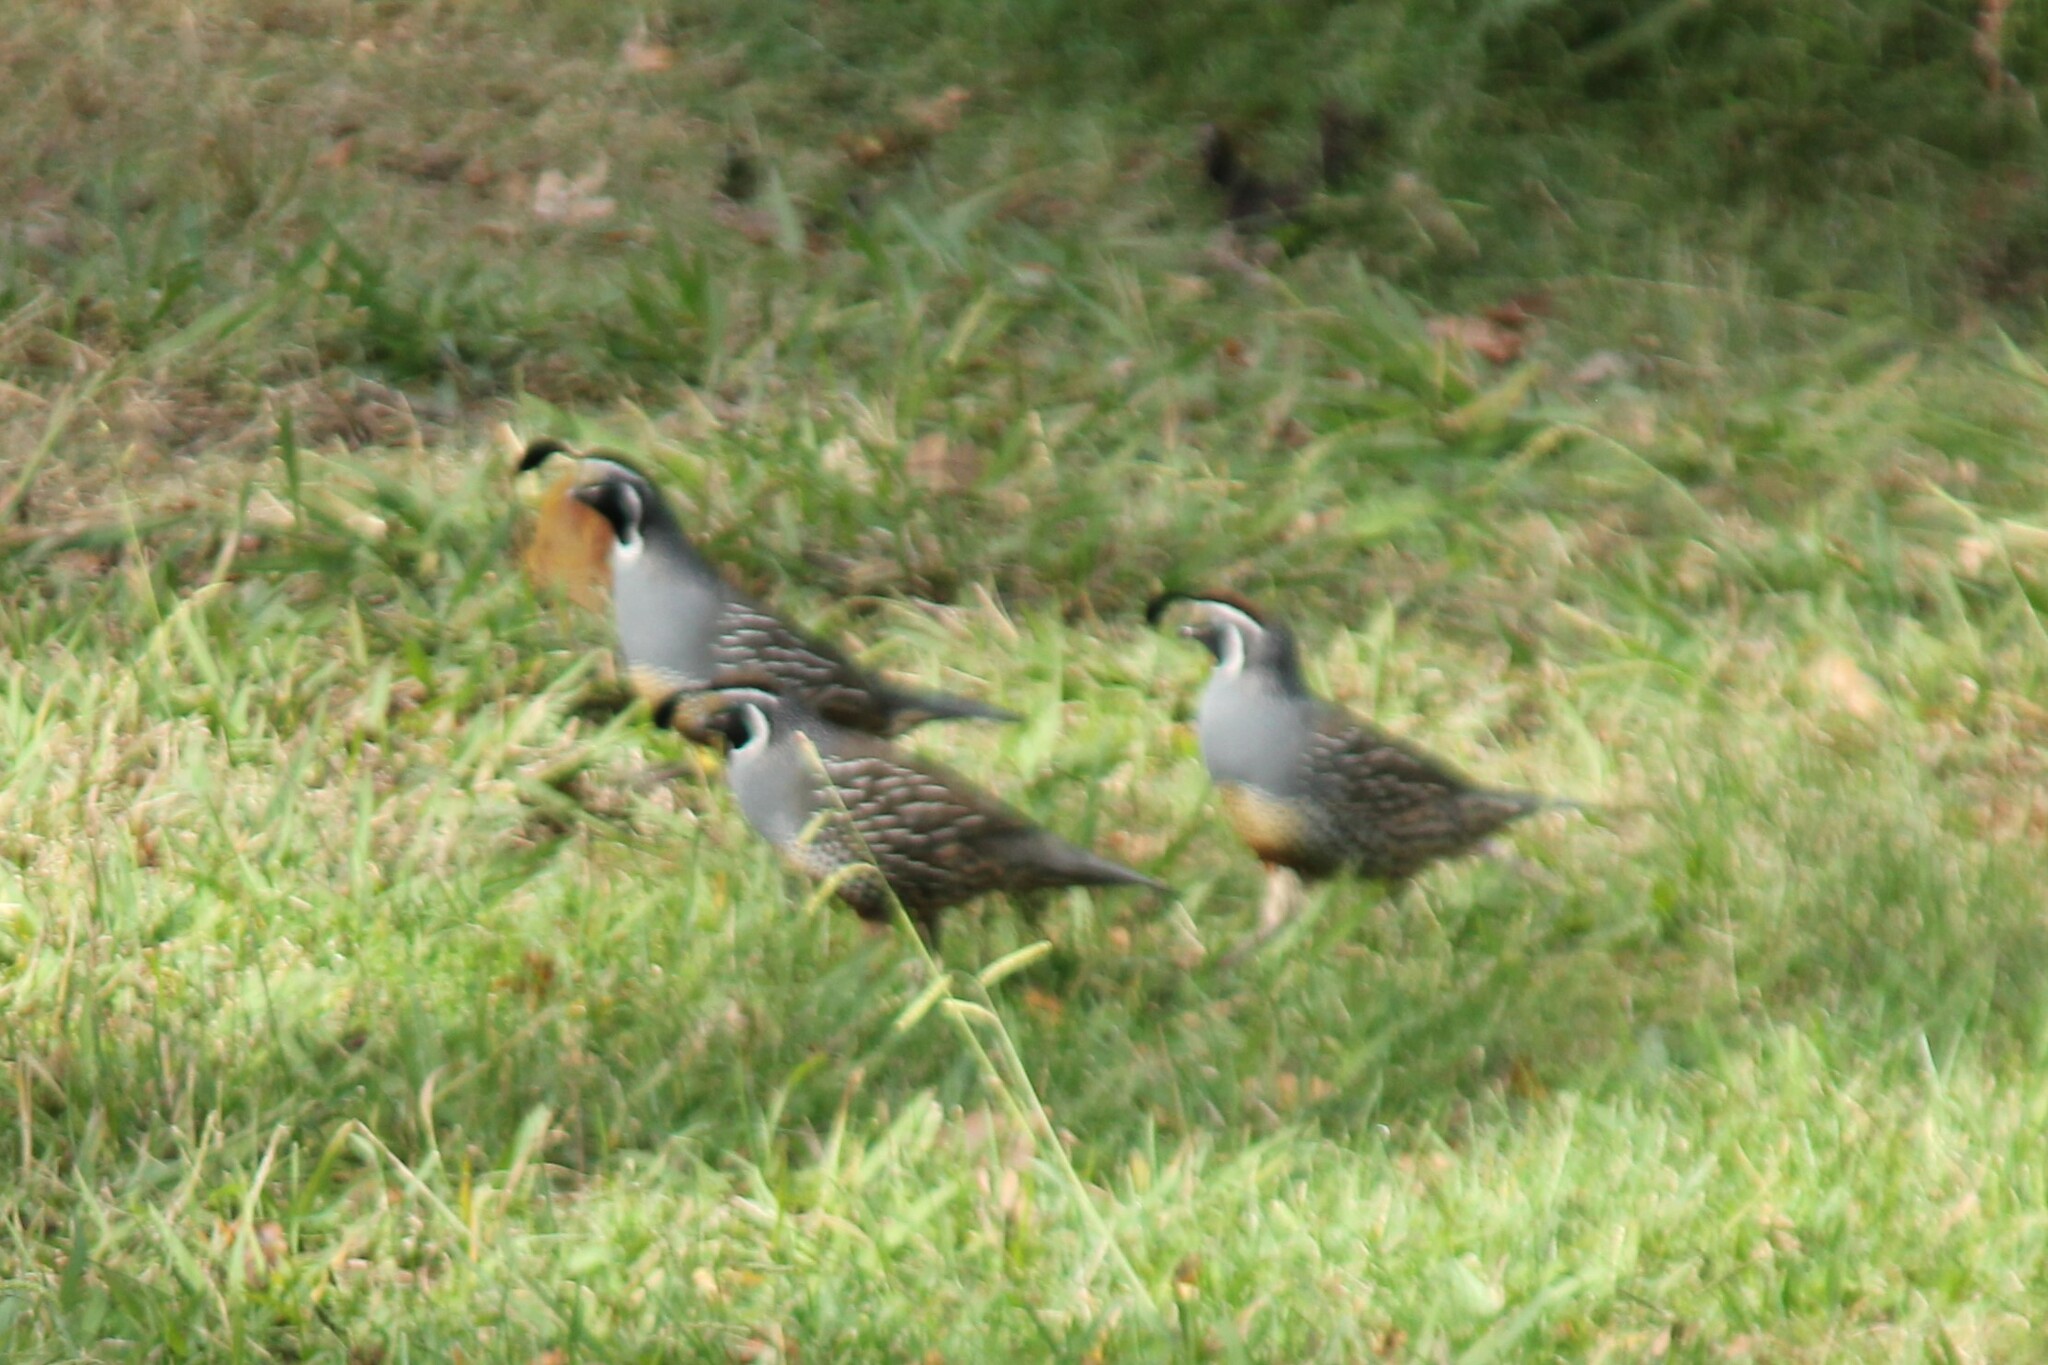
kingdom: Animalia
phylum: Chordata
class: Aves
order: Galliformes
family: Odontophoridae
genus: Callipepla
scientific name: Callipepla californica
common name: California quail
